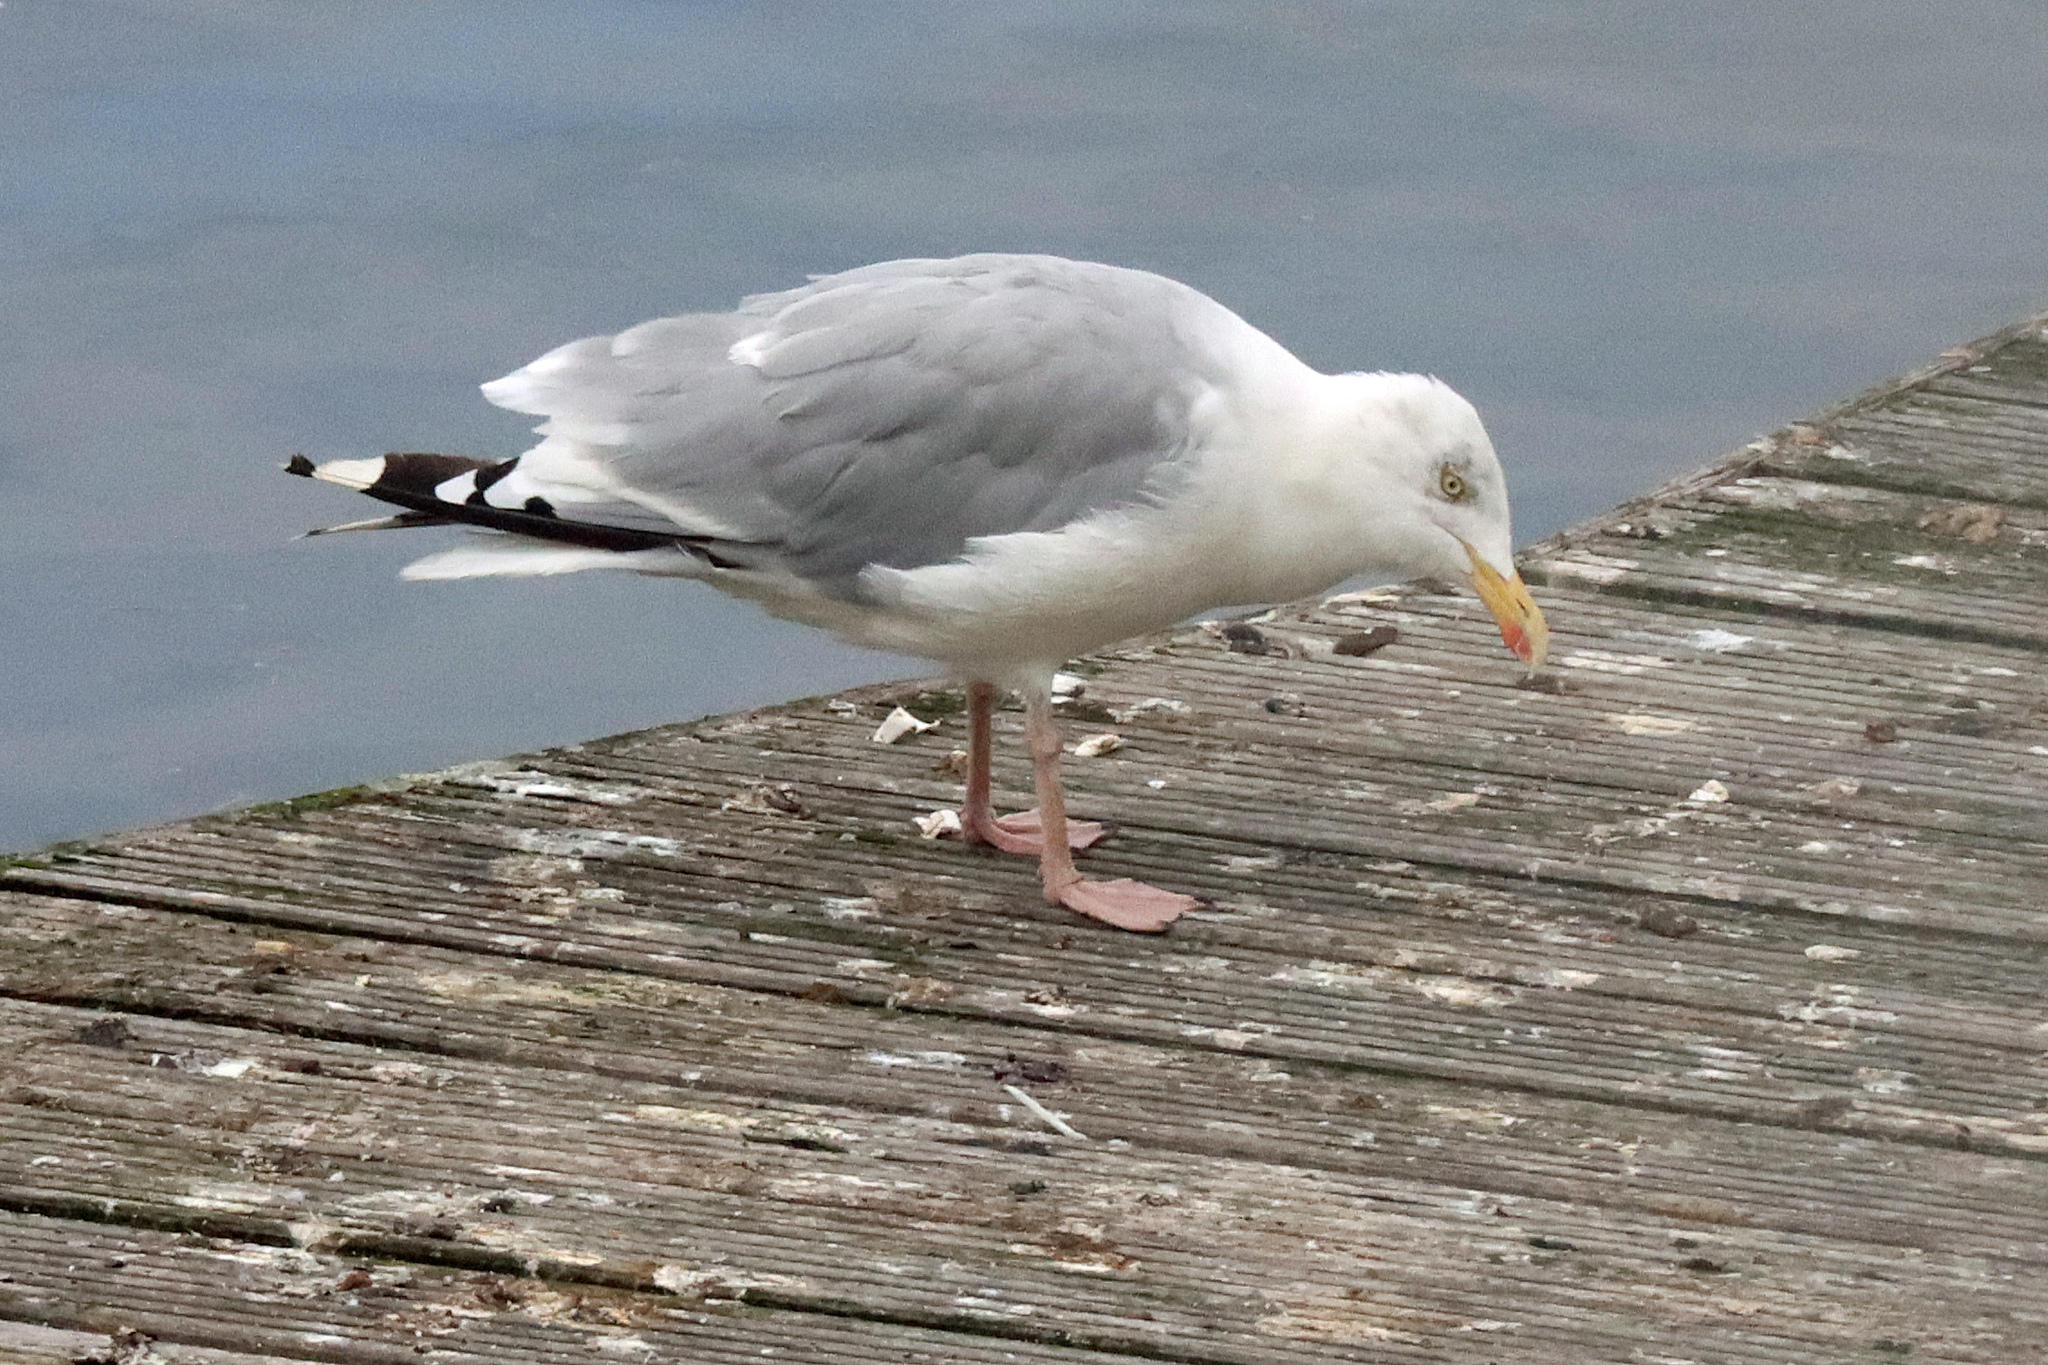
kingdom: Animalia
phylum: Chordata
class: Aves
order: Charadriiformes
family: Laridae
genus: Larus
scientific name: Larus argentatus
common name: Herring gull
